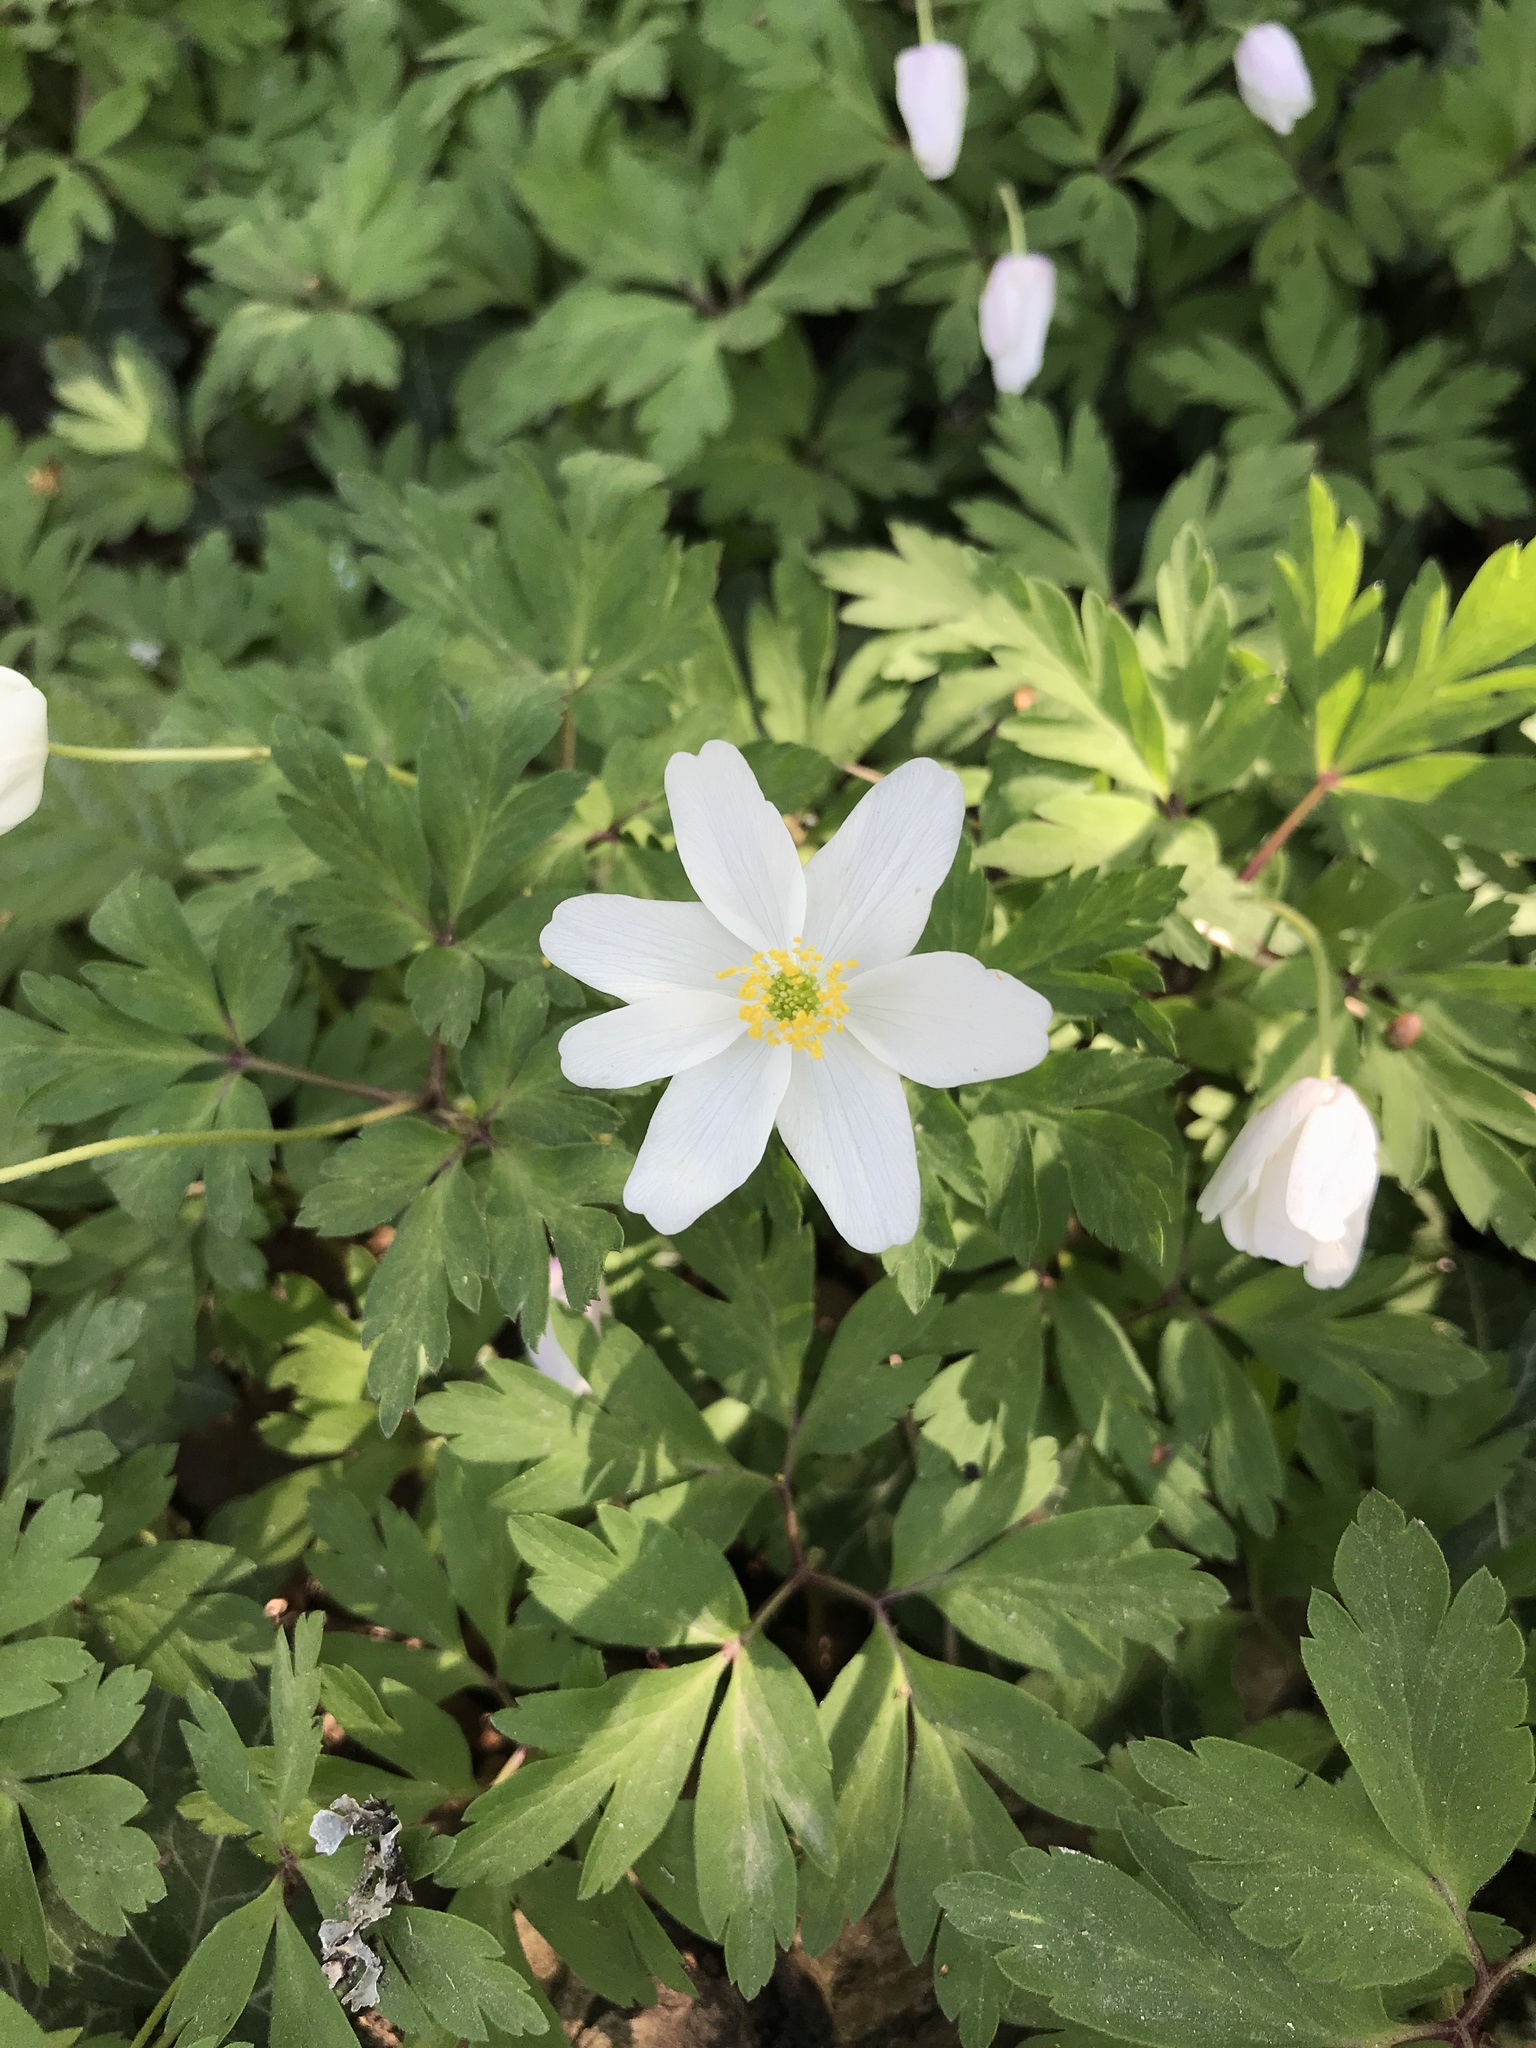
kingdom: Plantae
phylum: Tracheophyta
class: Magnoliopsida
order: Ranunculales
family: Ranunculaceae
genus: Anemone
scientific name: Anemone nemorosa
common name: Wood anemone
